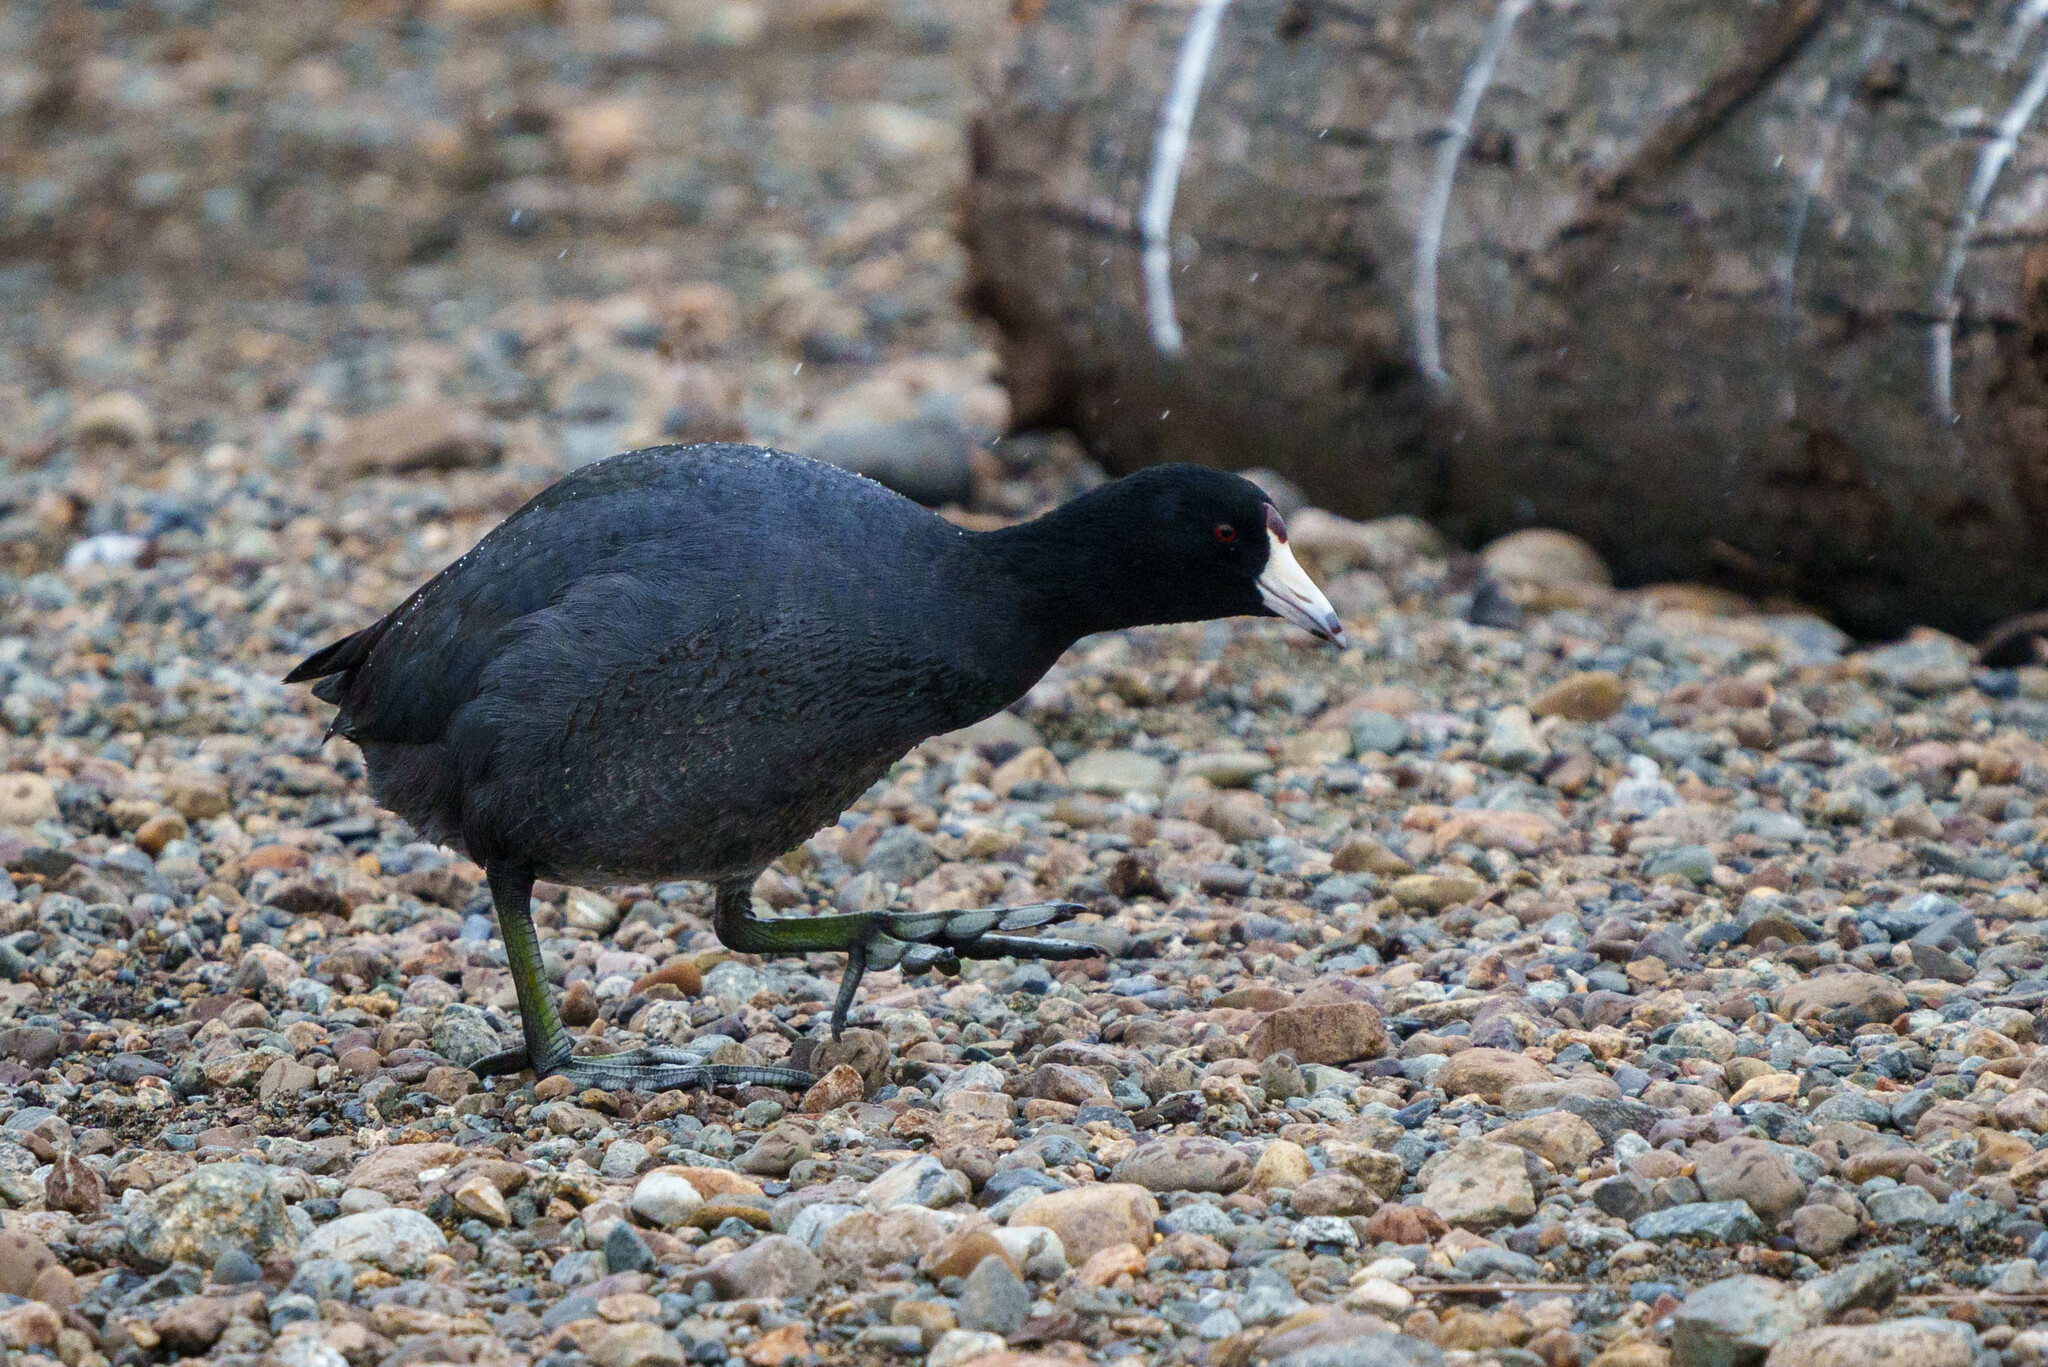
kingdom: Animalia
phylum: Chordata
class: Aves
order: Gruiformes
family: Rallidae
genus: Fulica
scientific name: Fulica americana
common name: American coot
